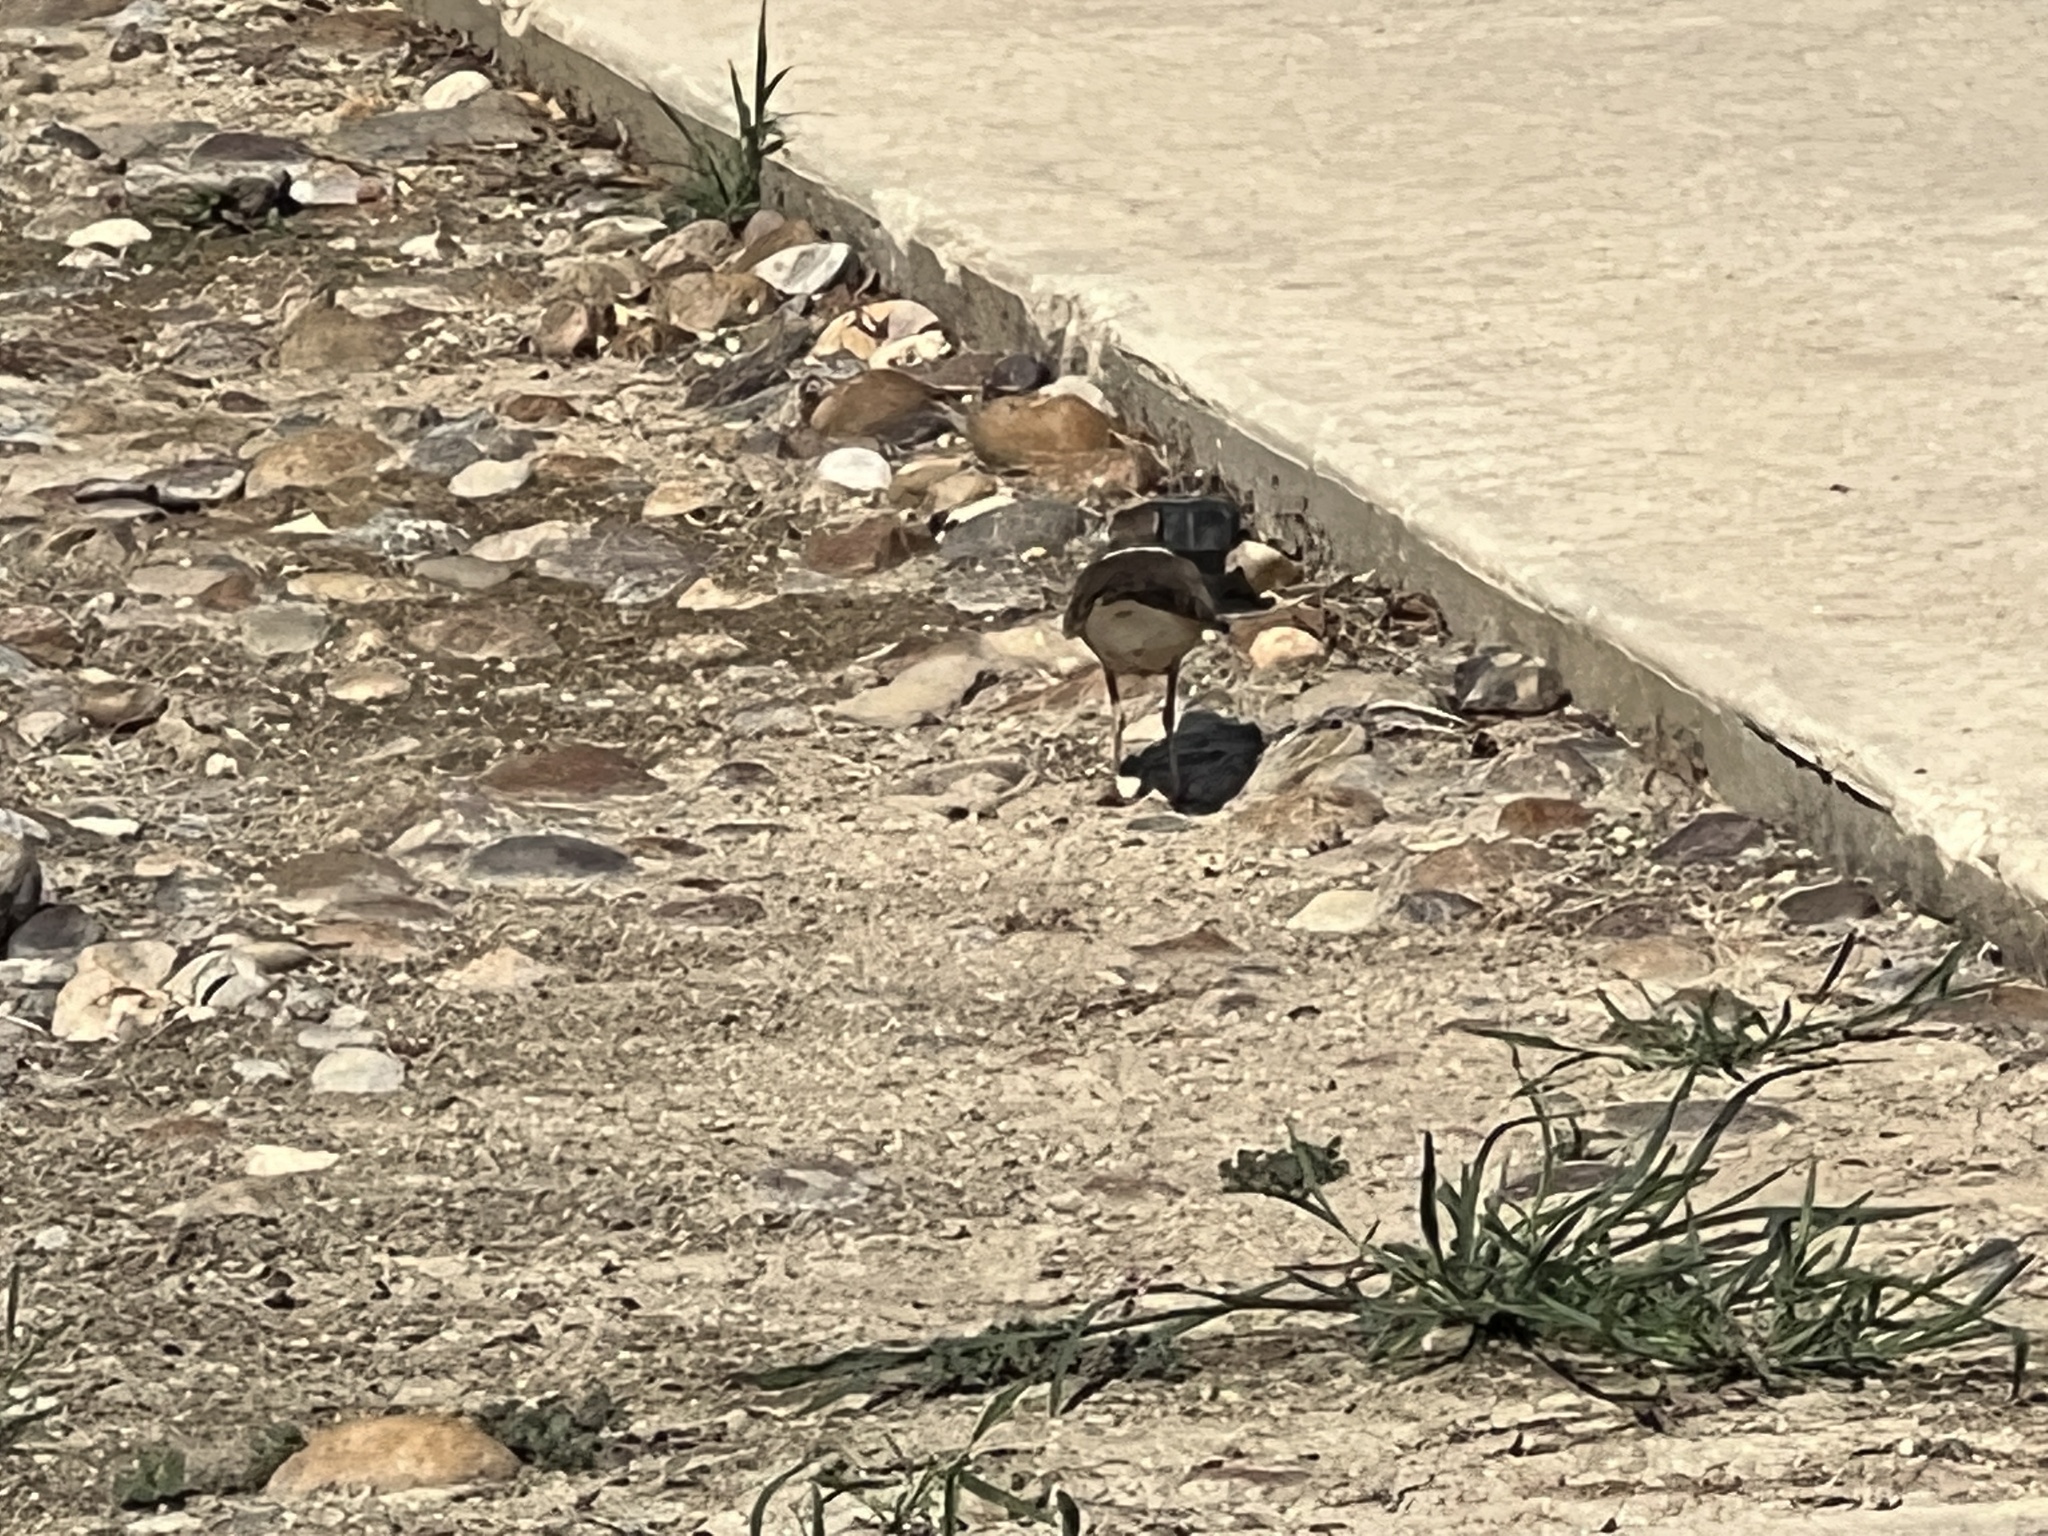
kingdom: Animalia
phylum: Chordata
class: Aves
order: Charadriiformes
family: Charadriidae
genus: Charadrius
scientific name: Charadrius vociferus
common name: Killdeer
